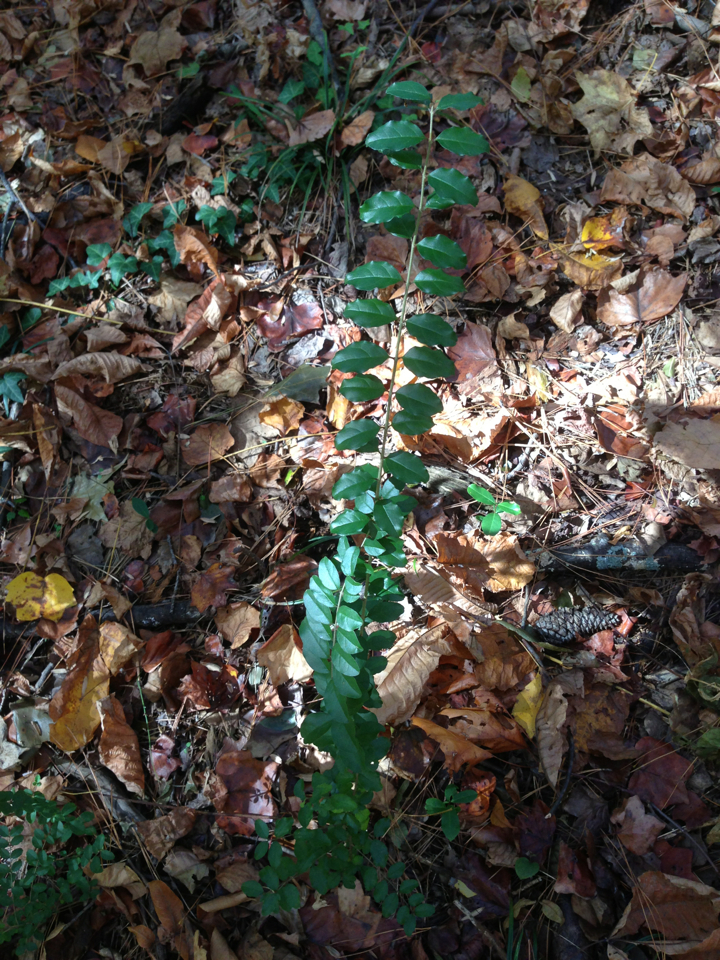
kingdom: Plantae
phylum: Tracheophyta
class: Magnoliopsida
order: Lamiales
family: Oleaceae
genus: Ligustrum
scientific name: Ligustrum sinense
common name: Chinese privet
